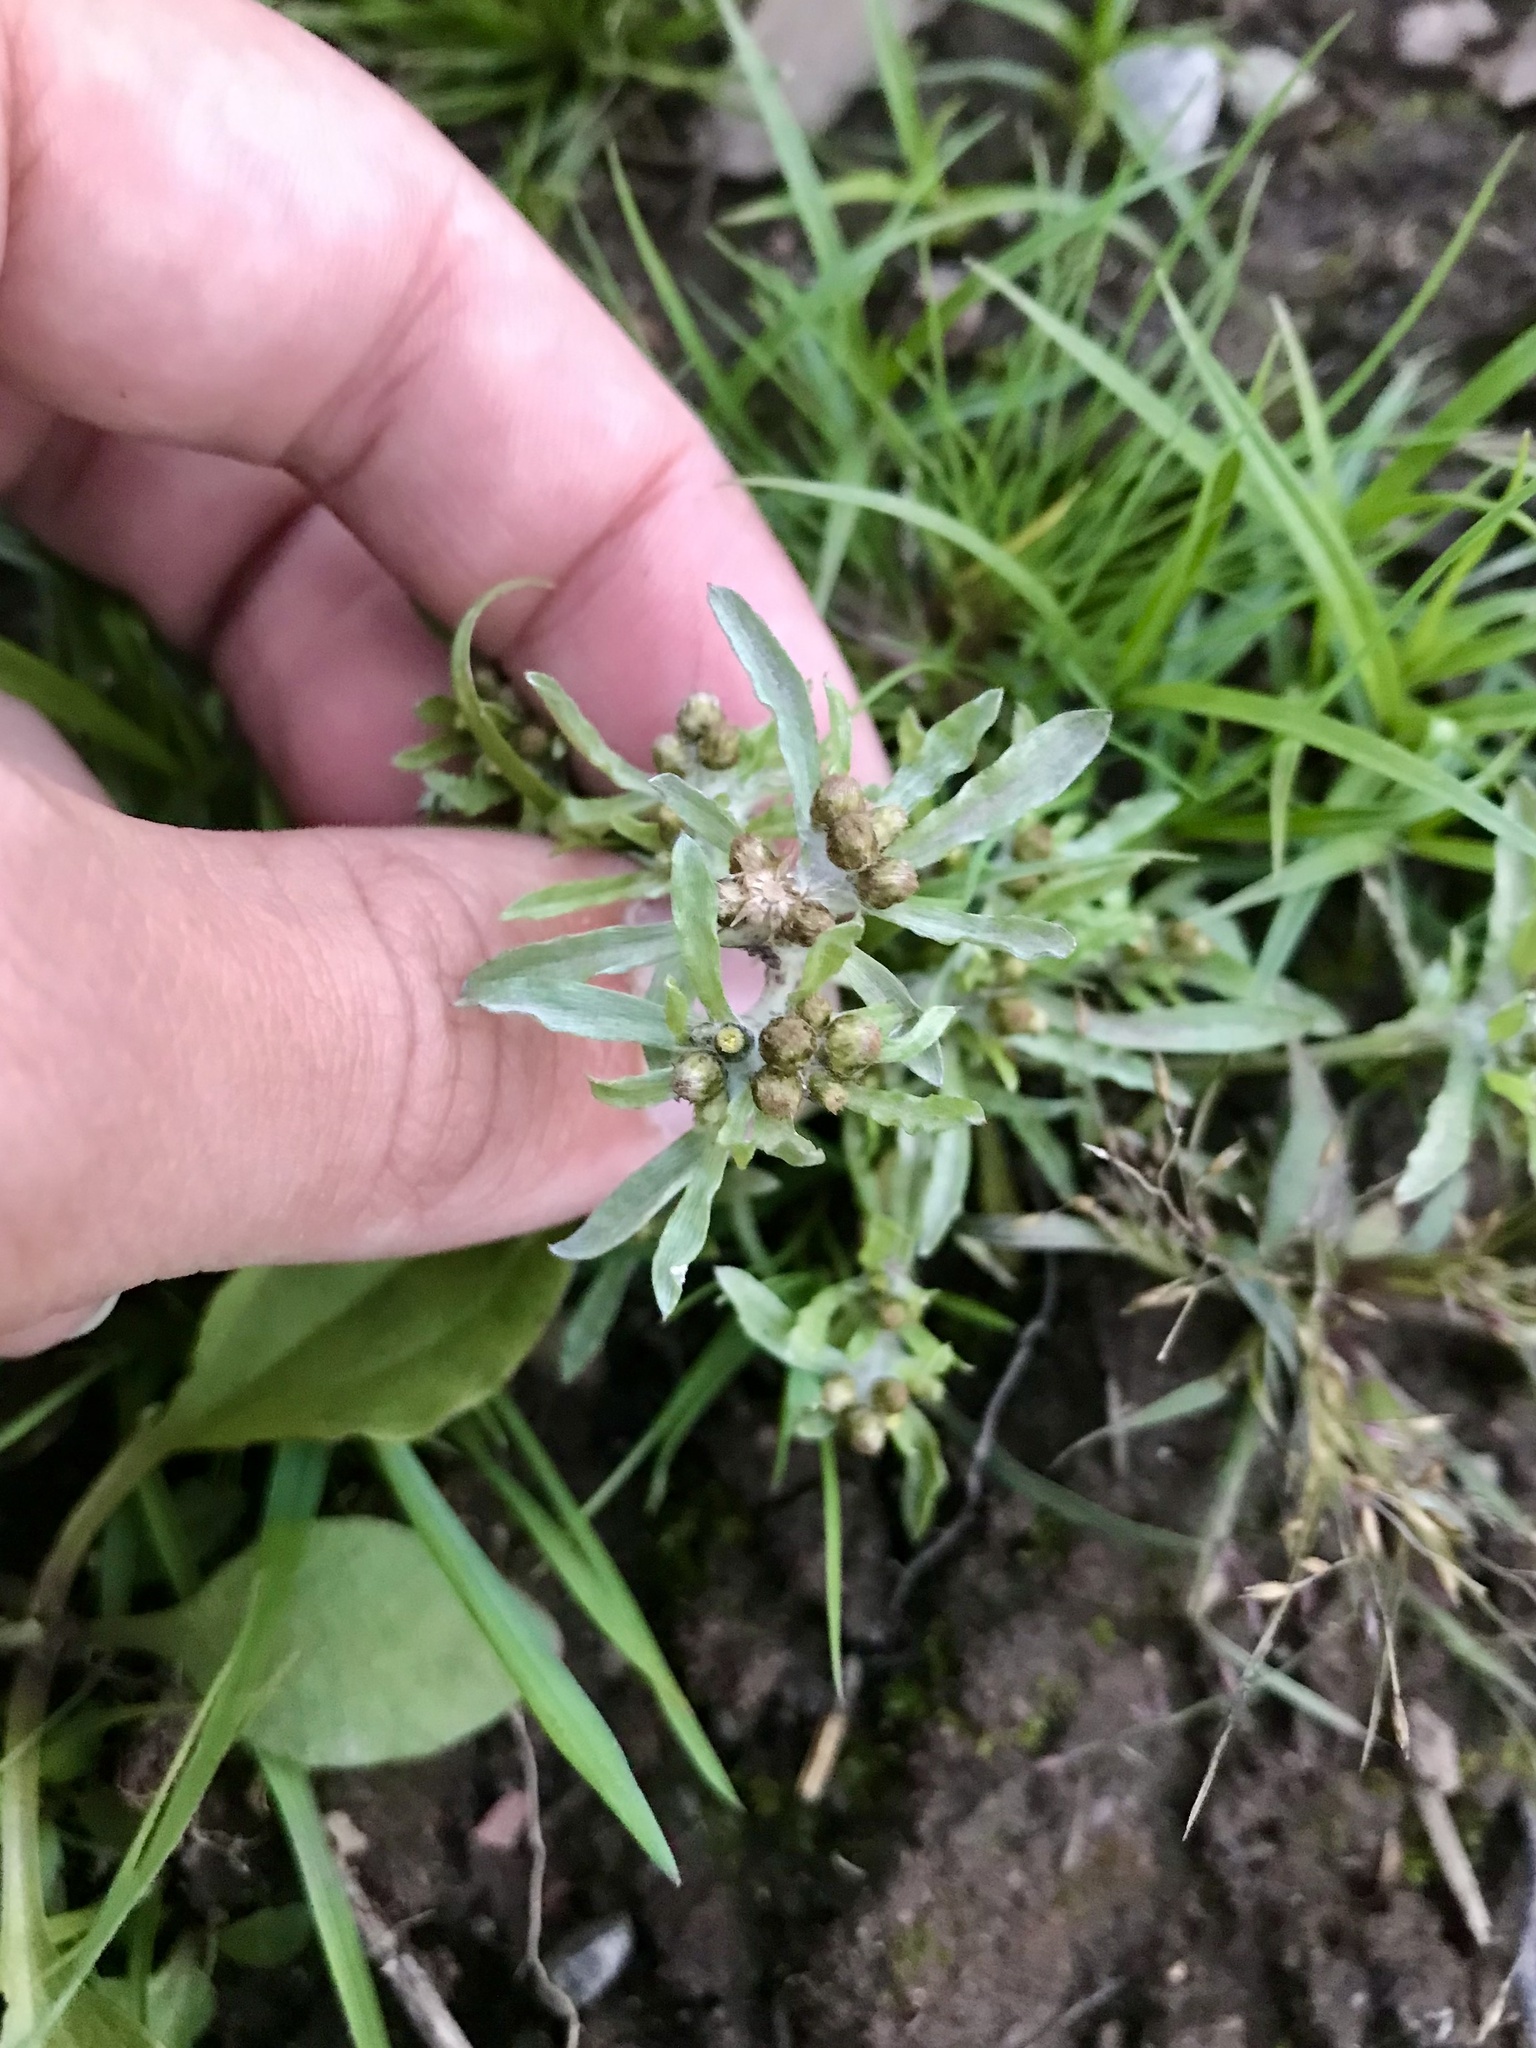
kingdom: Plantae
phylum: Tracheophyta
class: Magnoliopsida
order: Asterales
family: Asteraceae
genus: Gnaphalium
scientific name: Gnaphalium uliginosum
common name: Marsh cudweed
